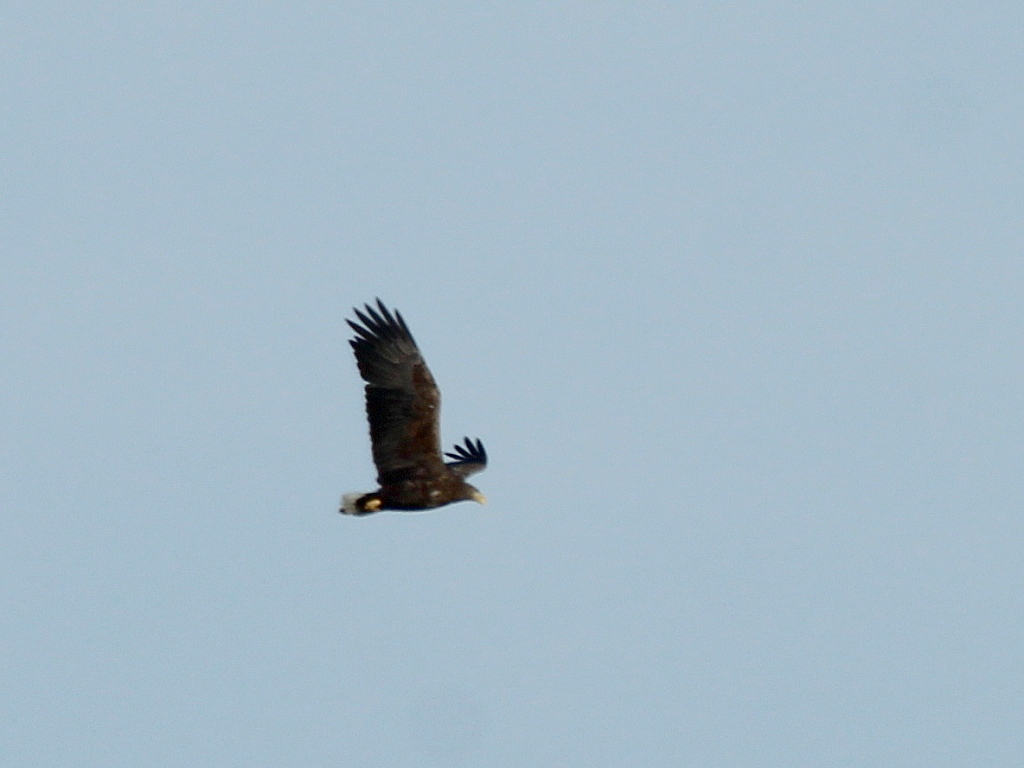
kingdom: Animalia
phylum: Chordata
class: Aves
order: Accipitriformes
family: Accipitridae
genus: Haliaeetus
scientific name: Haliaeetus albicilla
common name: White-tailed eagle
